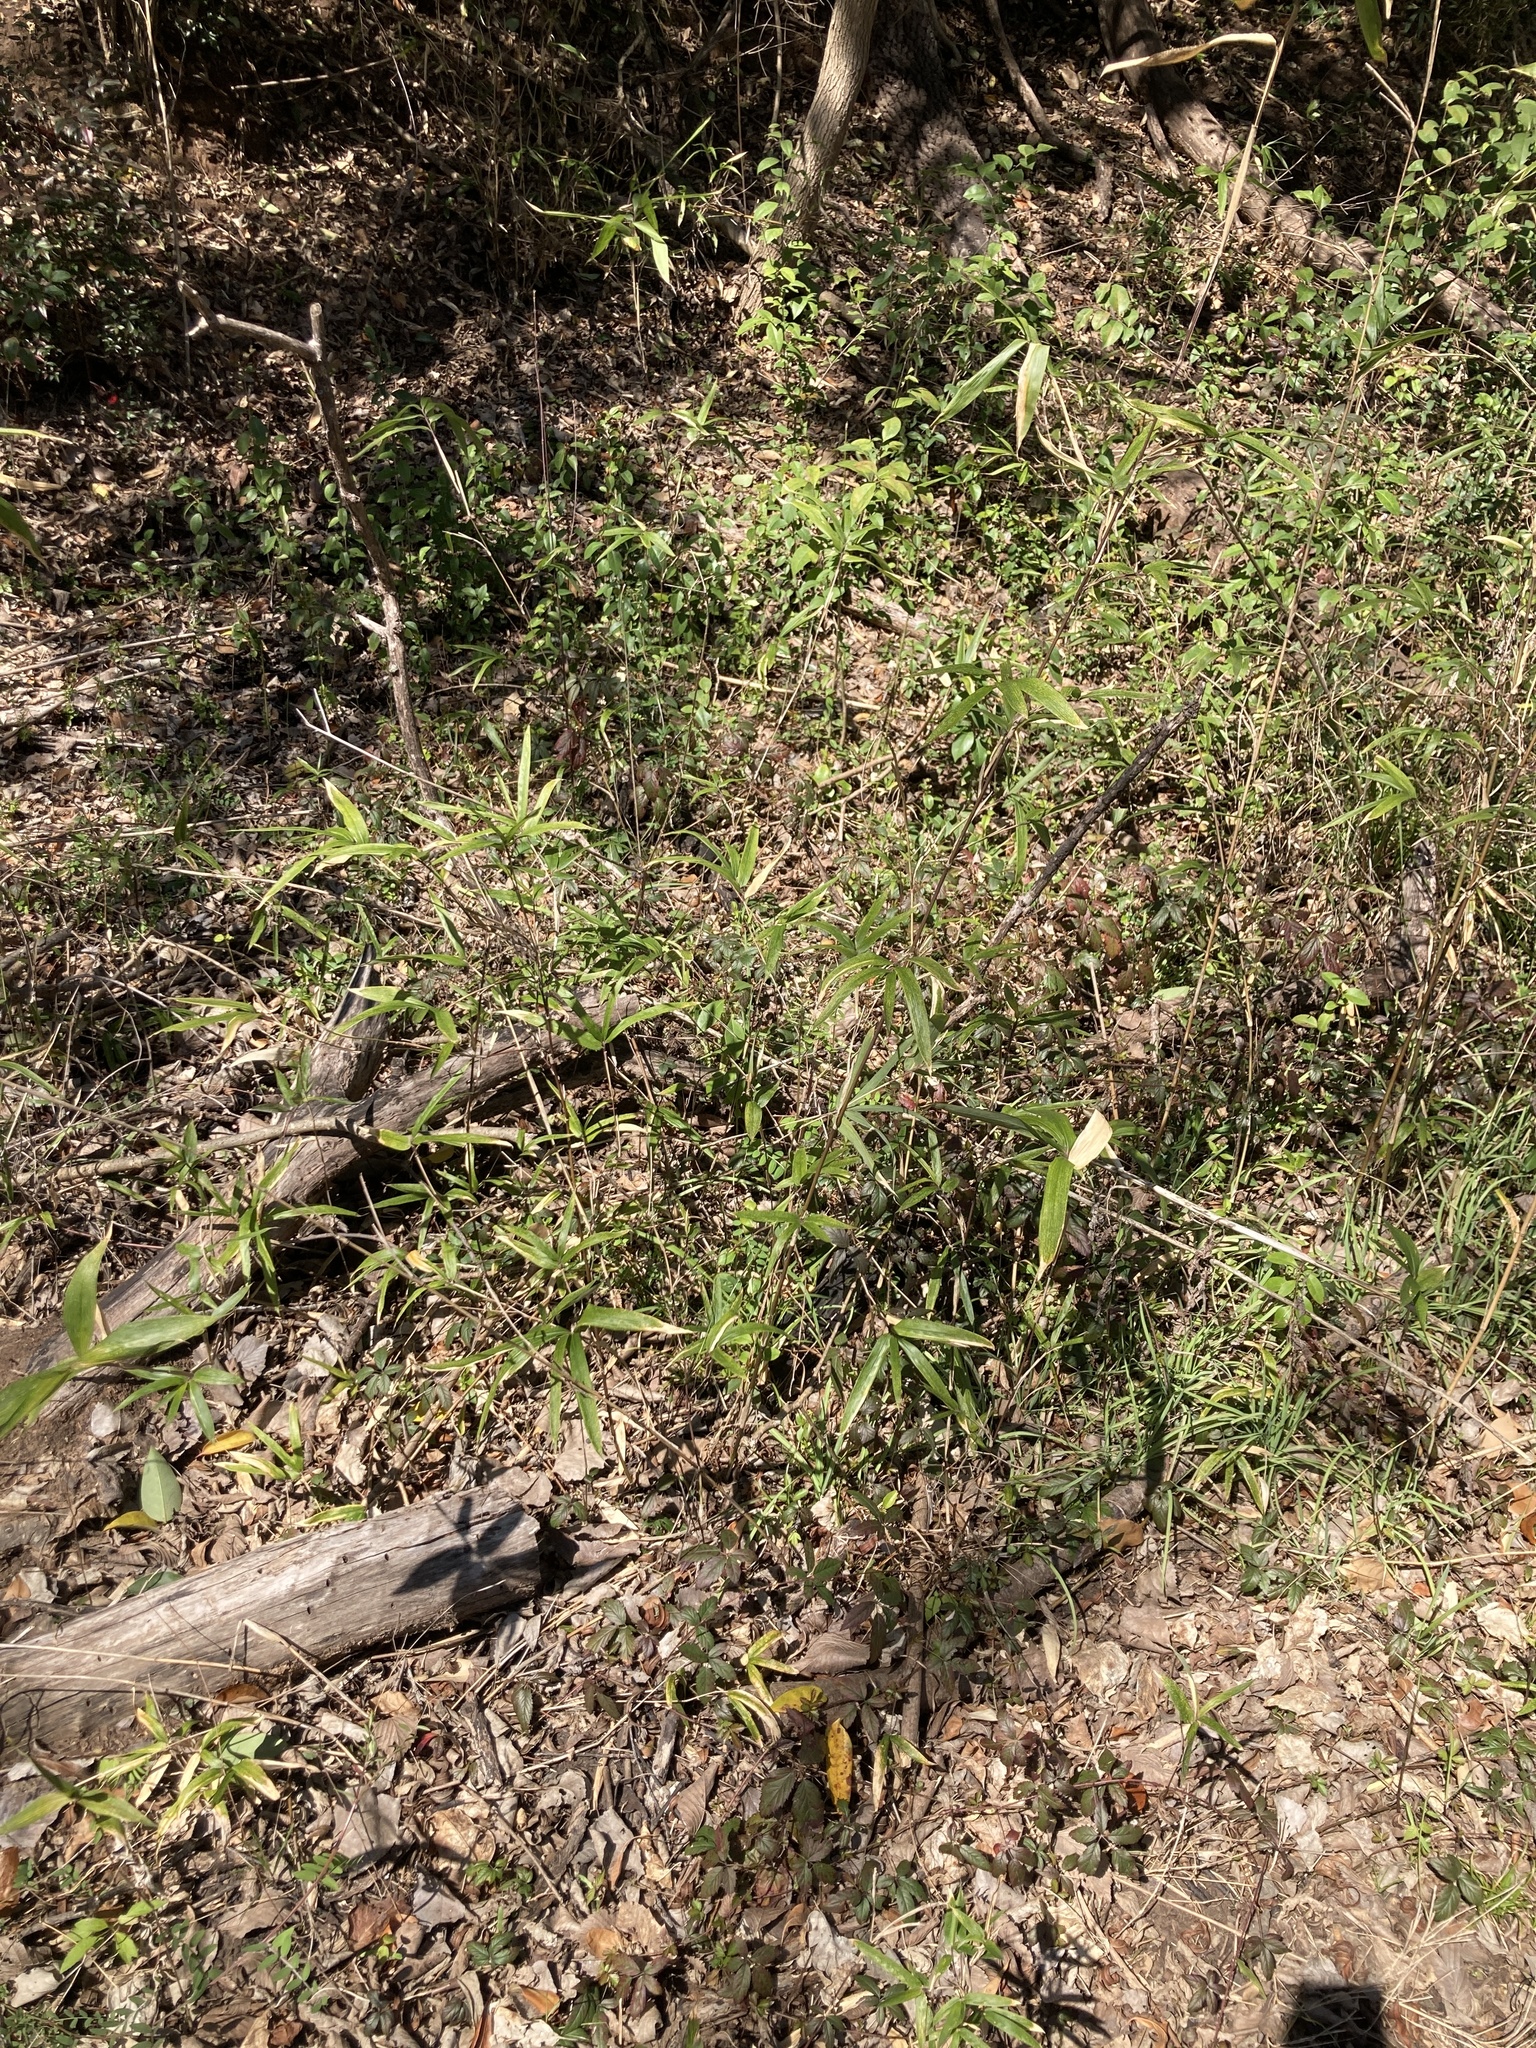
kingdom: Plantae
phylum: Tracheophyta
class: Liliopsida
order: Poales
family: Poaceae
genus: Arundinaria
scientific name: Arundinaria gigantea
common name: Giant cane
